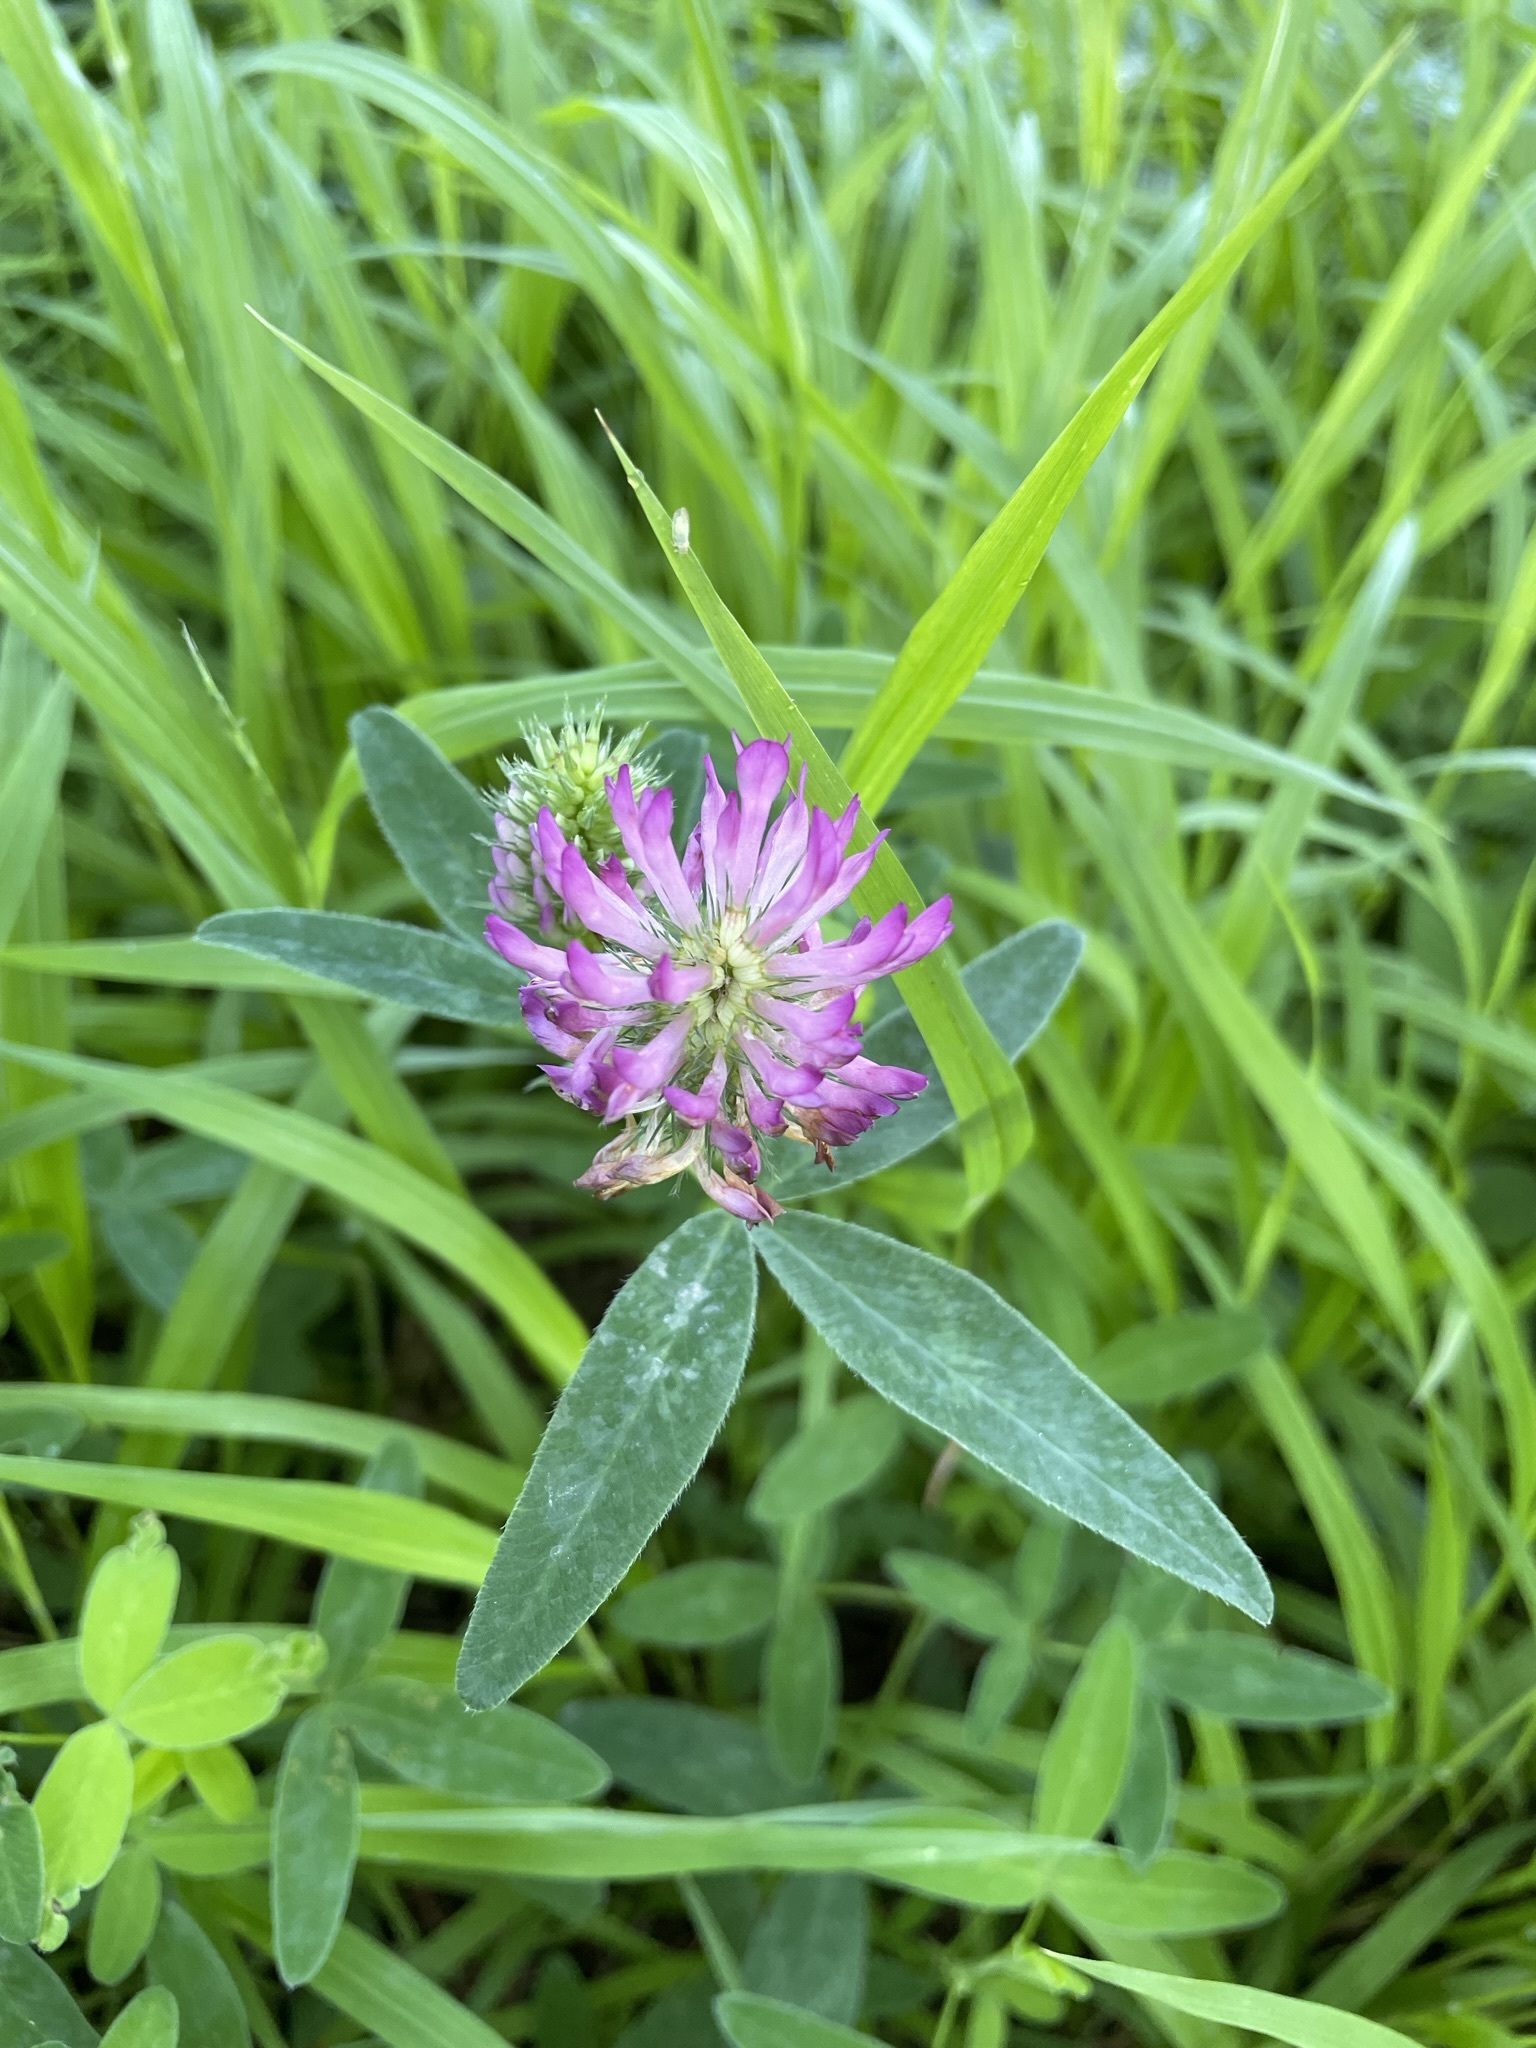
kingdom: Plantae
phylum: Tracheophyta
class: Magnoliopsida
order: Fabales
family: Fabaceae
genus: Trifolium
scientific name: Trifolium medium
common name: Zigzag clover
